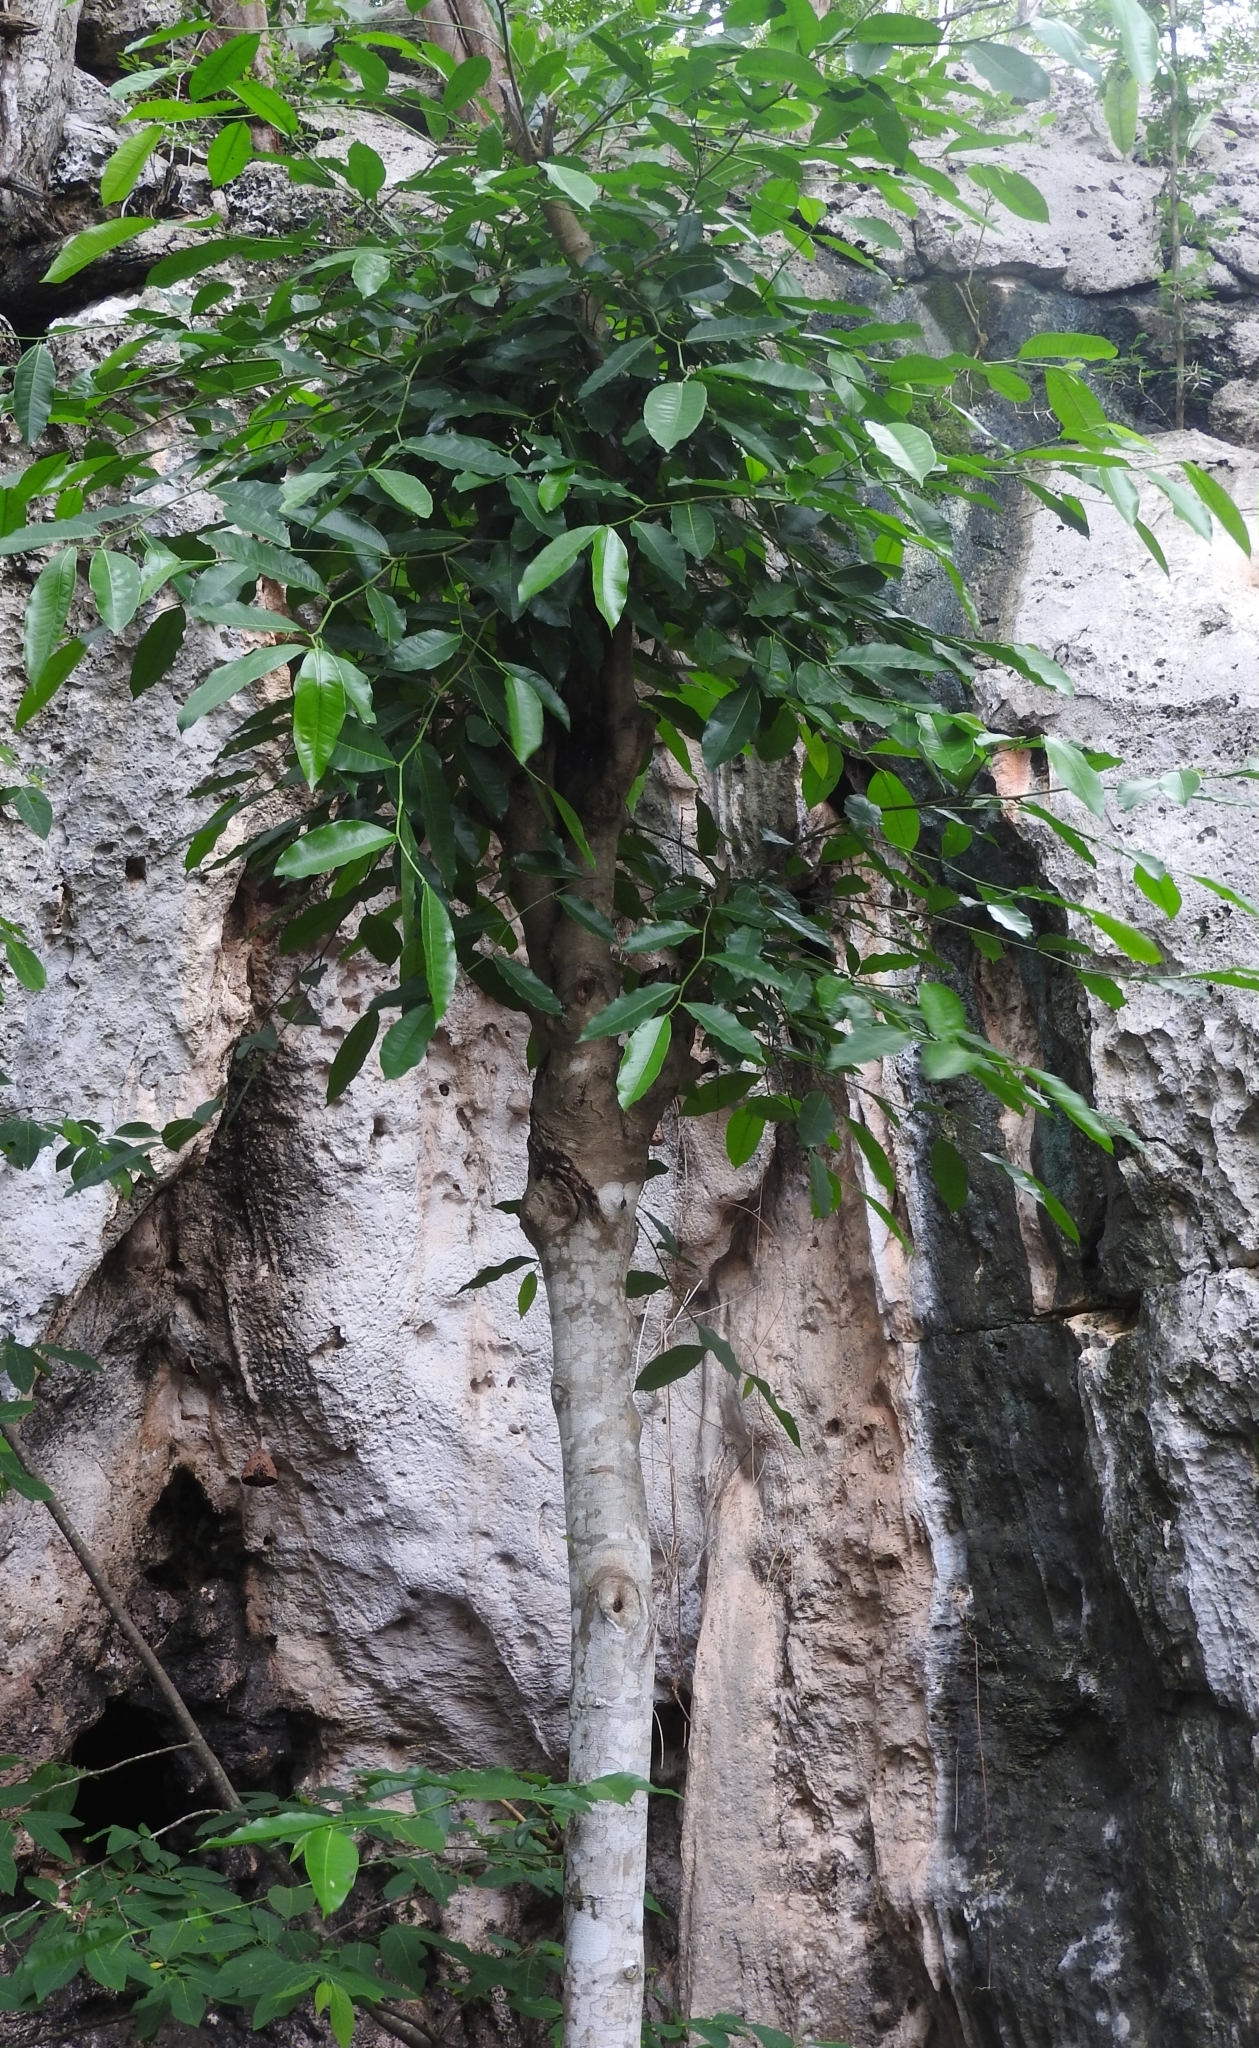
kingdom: Plantae
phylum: Tracheophyta
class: Magnoliopsida
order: Rosales
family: Moraceae
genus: Brosimum
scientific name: Brosimum alicastrum
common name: Breadnut
